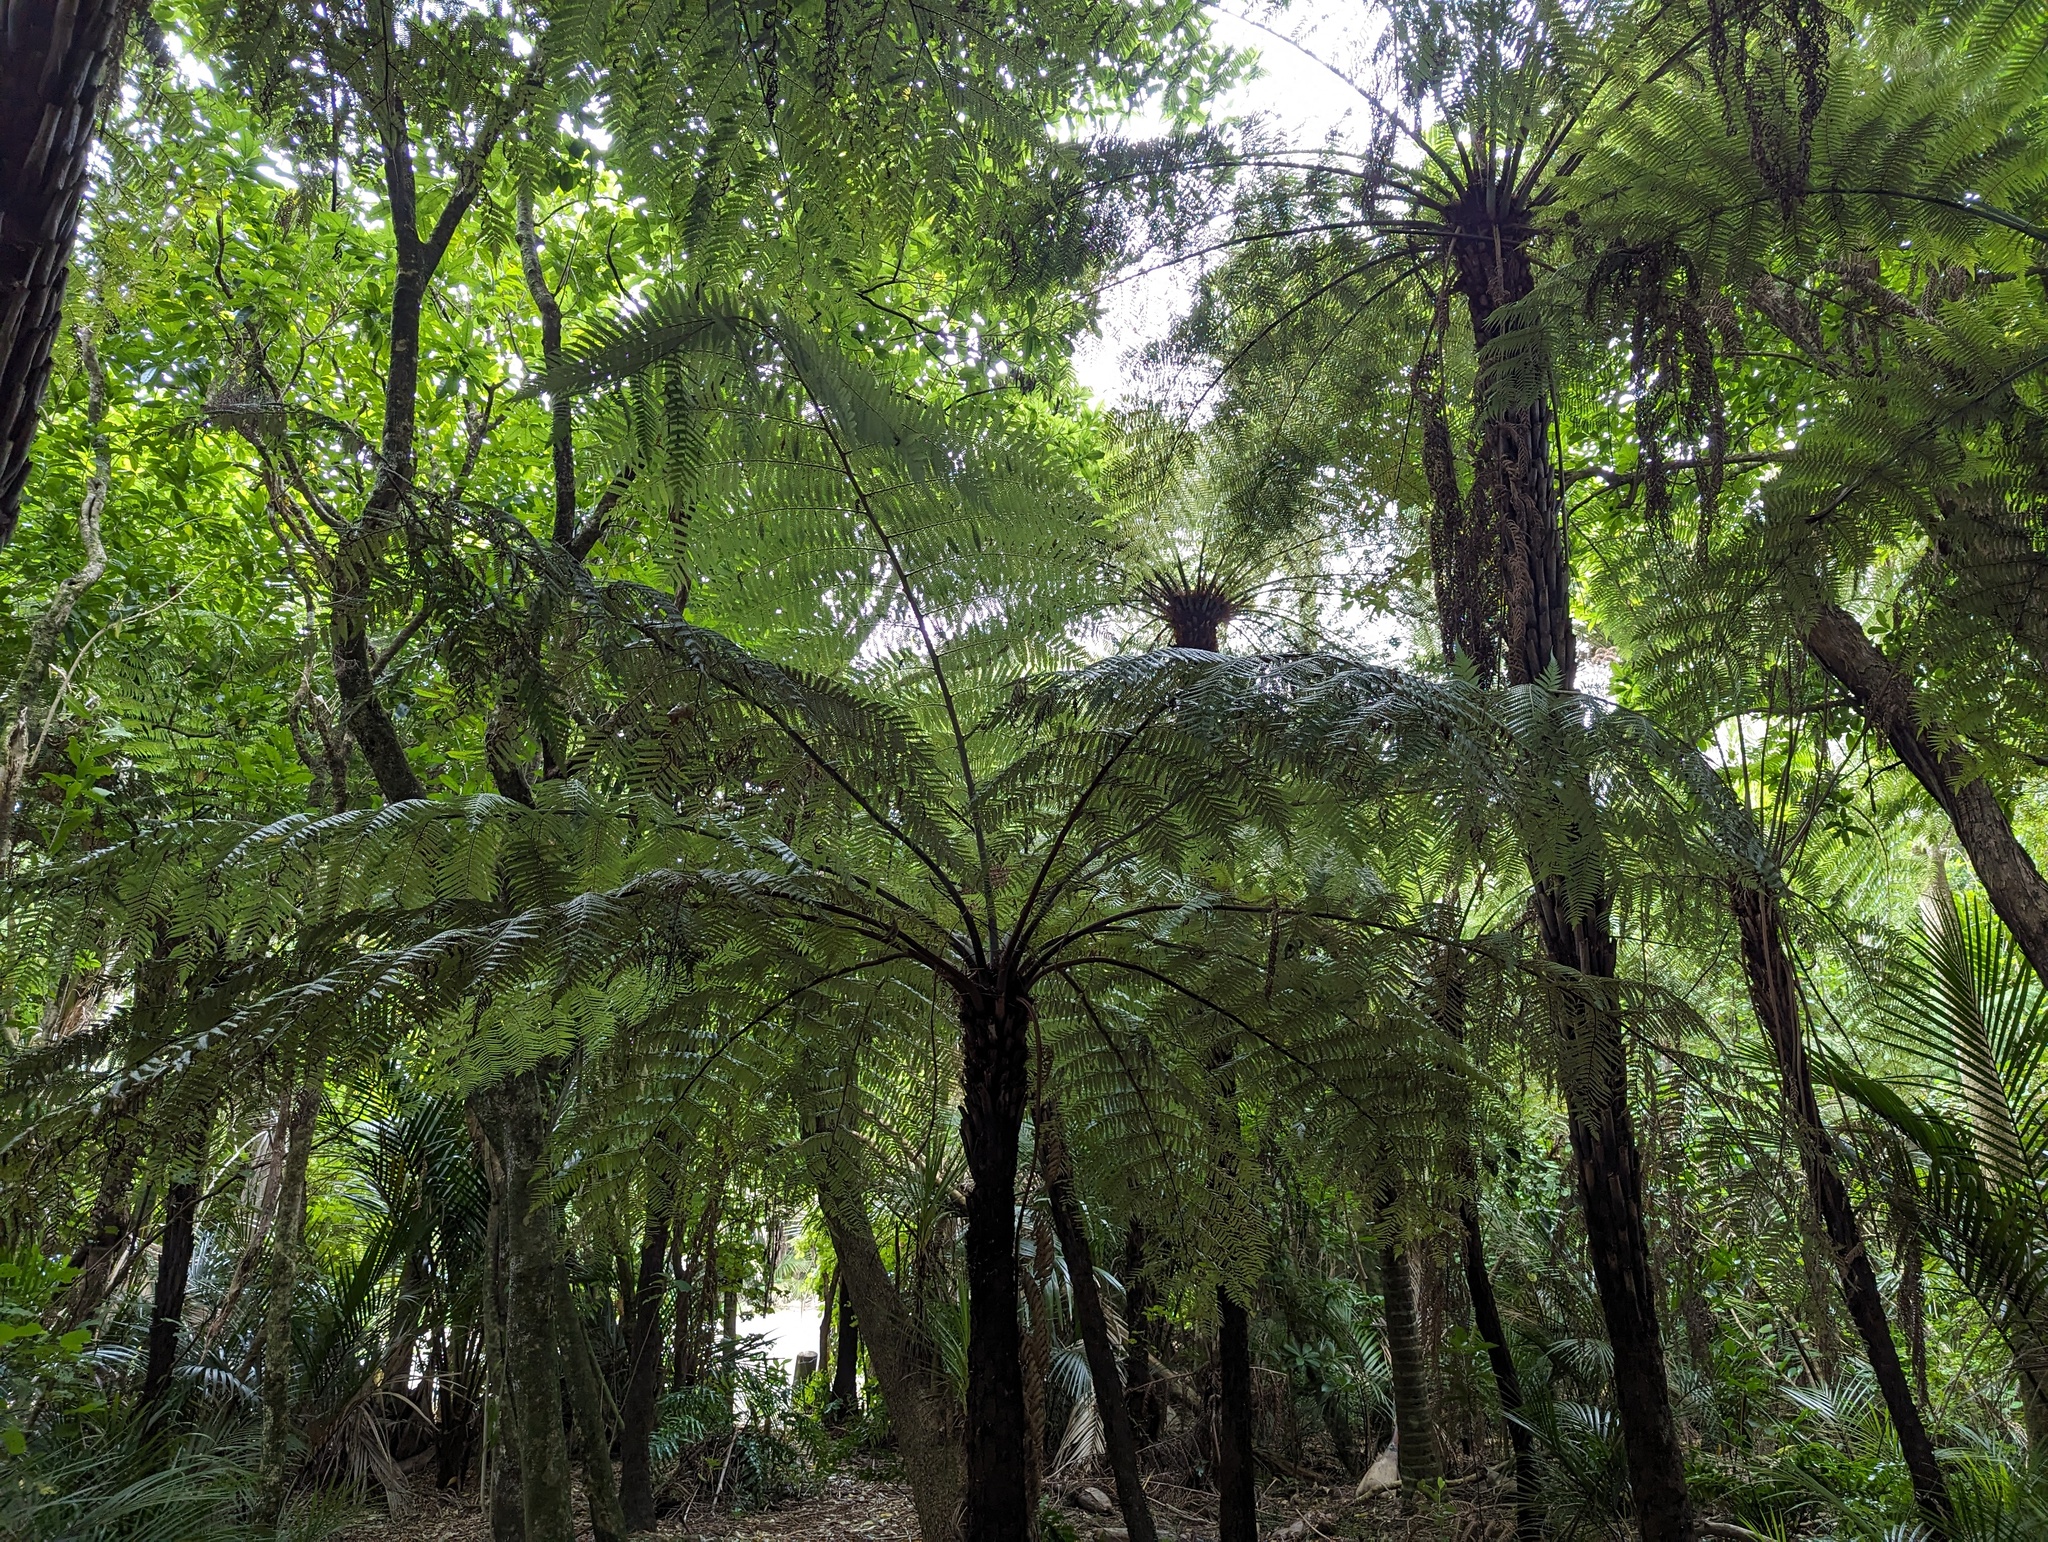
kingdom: Plantae
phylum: Tracheophyta
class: Polypodiopsida
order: Cyatheales
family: Cyatheaceae
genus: Alsophila
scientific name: Alsophila dealbata
